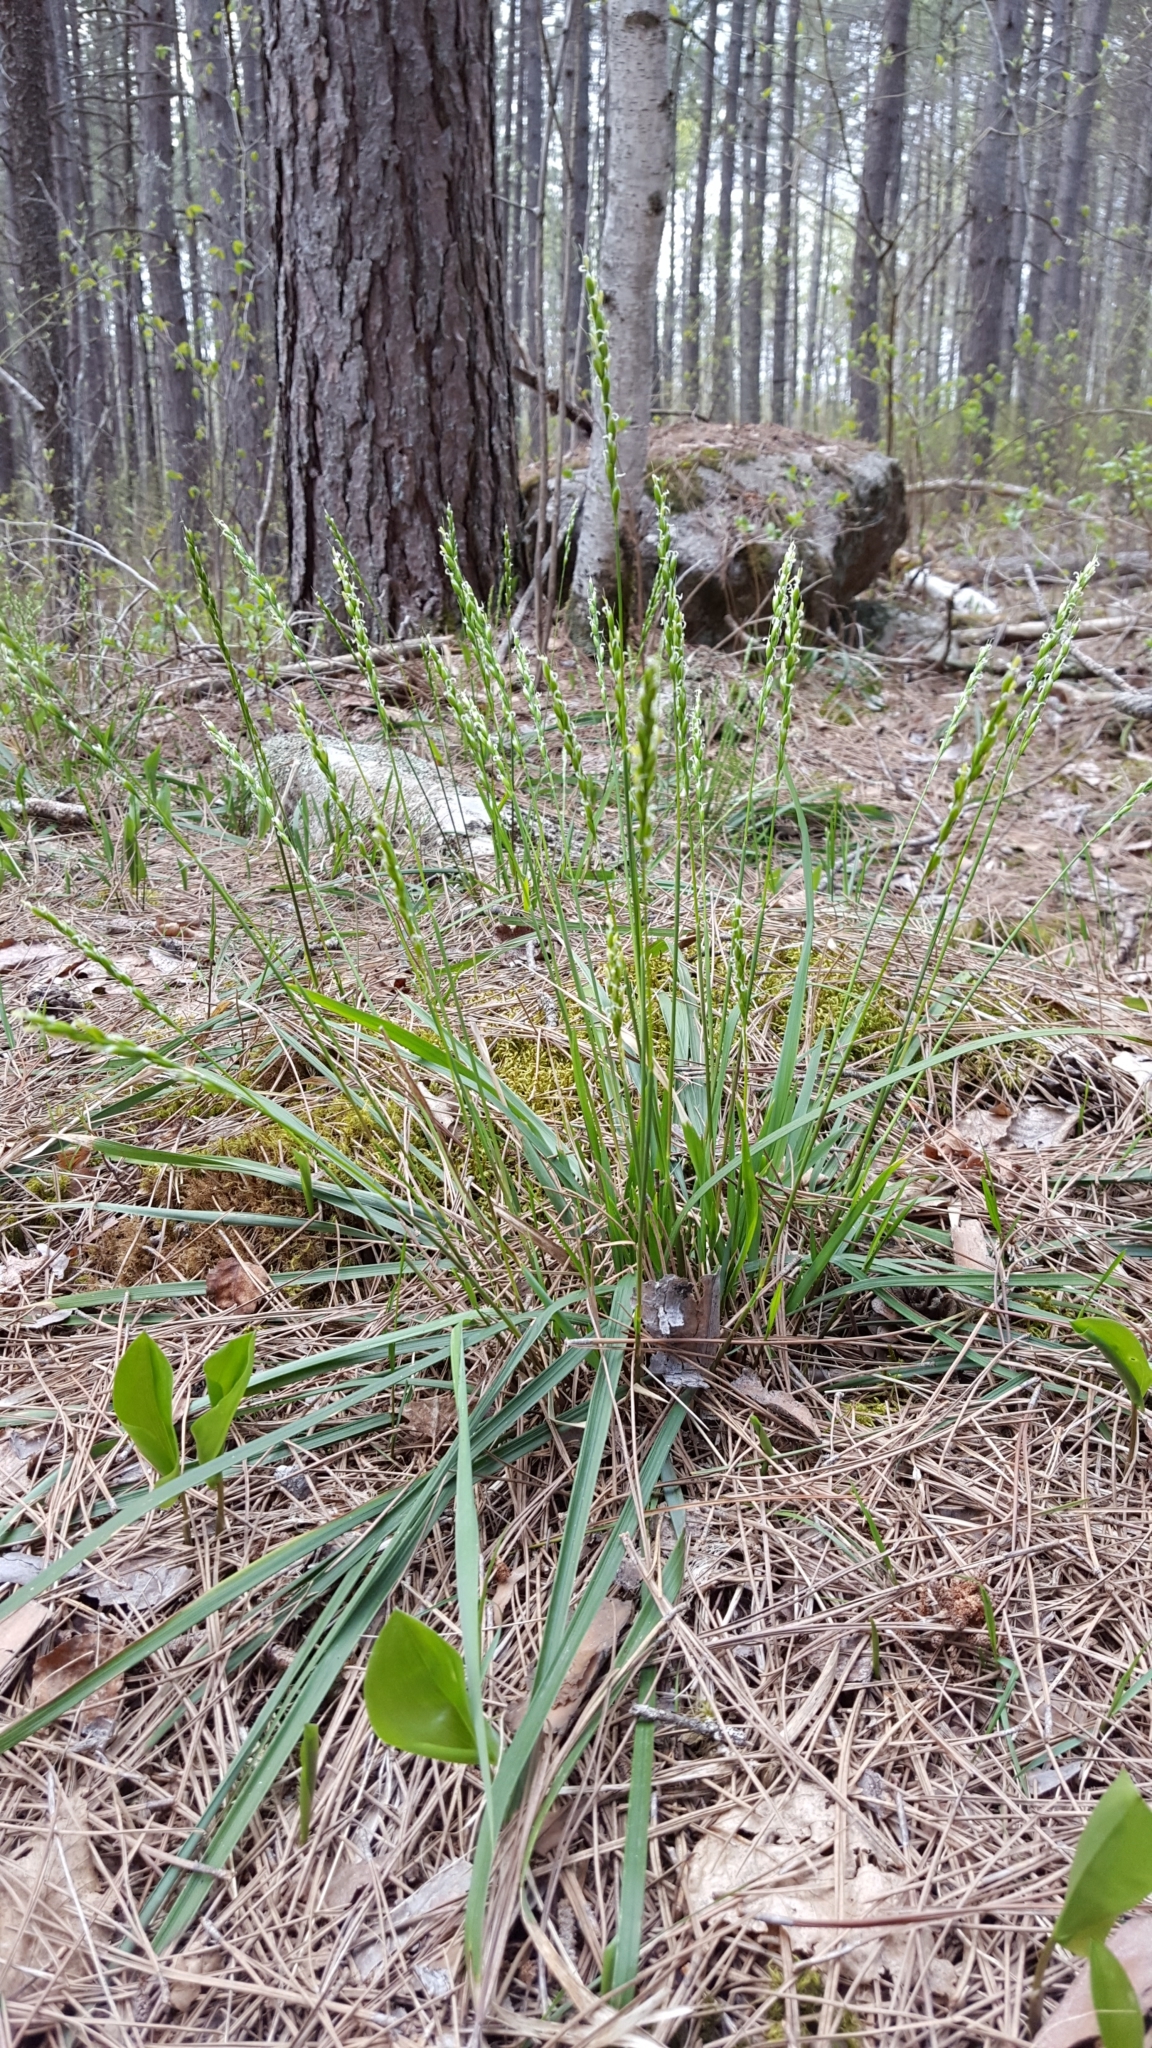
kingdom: Plantae
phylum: Tracheophyta
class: Liliopsida
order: Poales
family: Poaceae
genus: Oryzopsis
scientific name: Oryzopsis asperifolia
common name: Rough-leaved mountain rice
